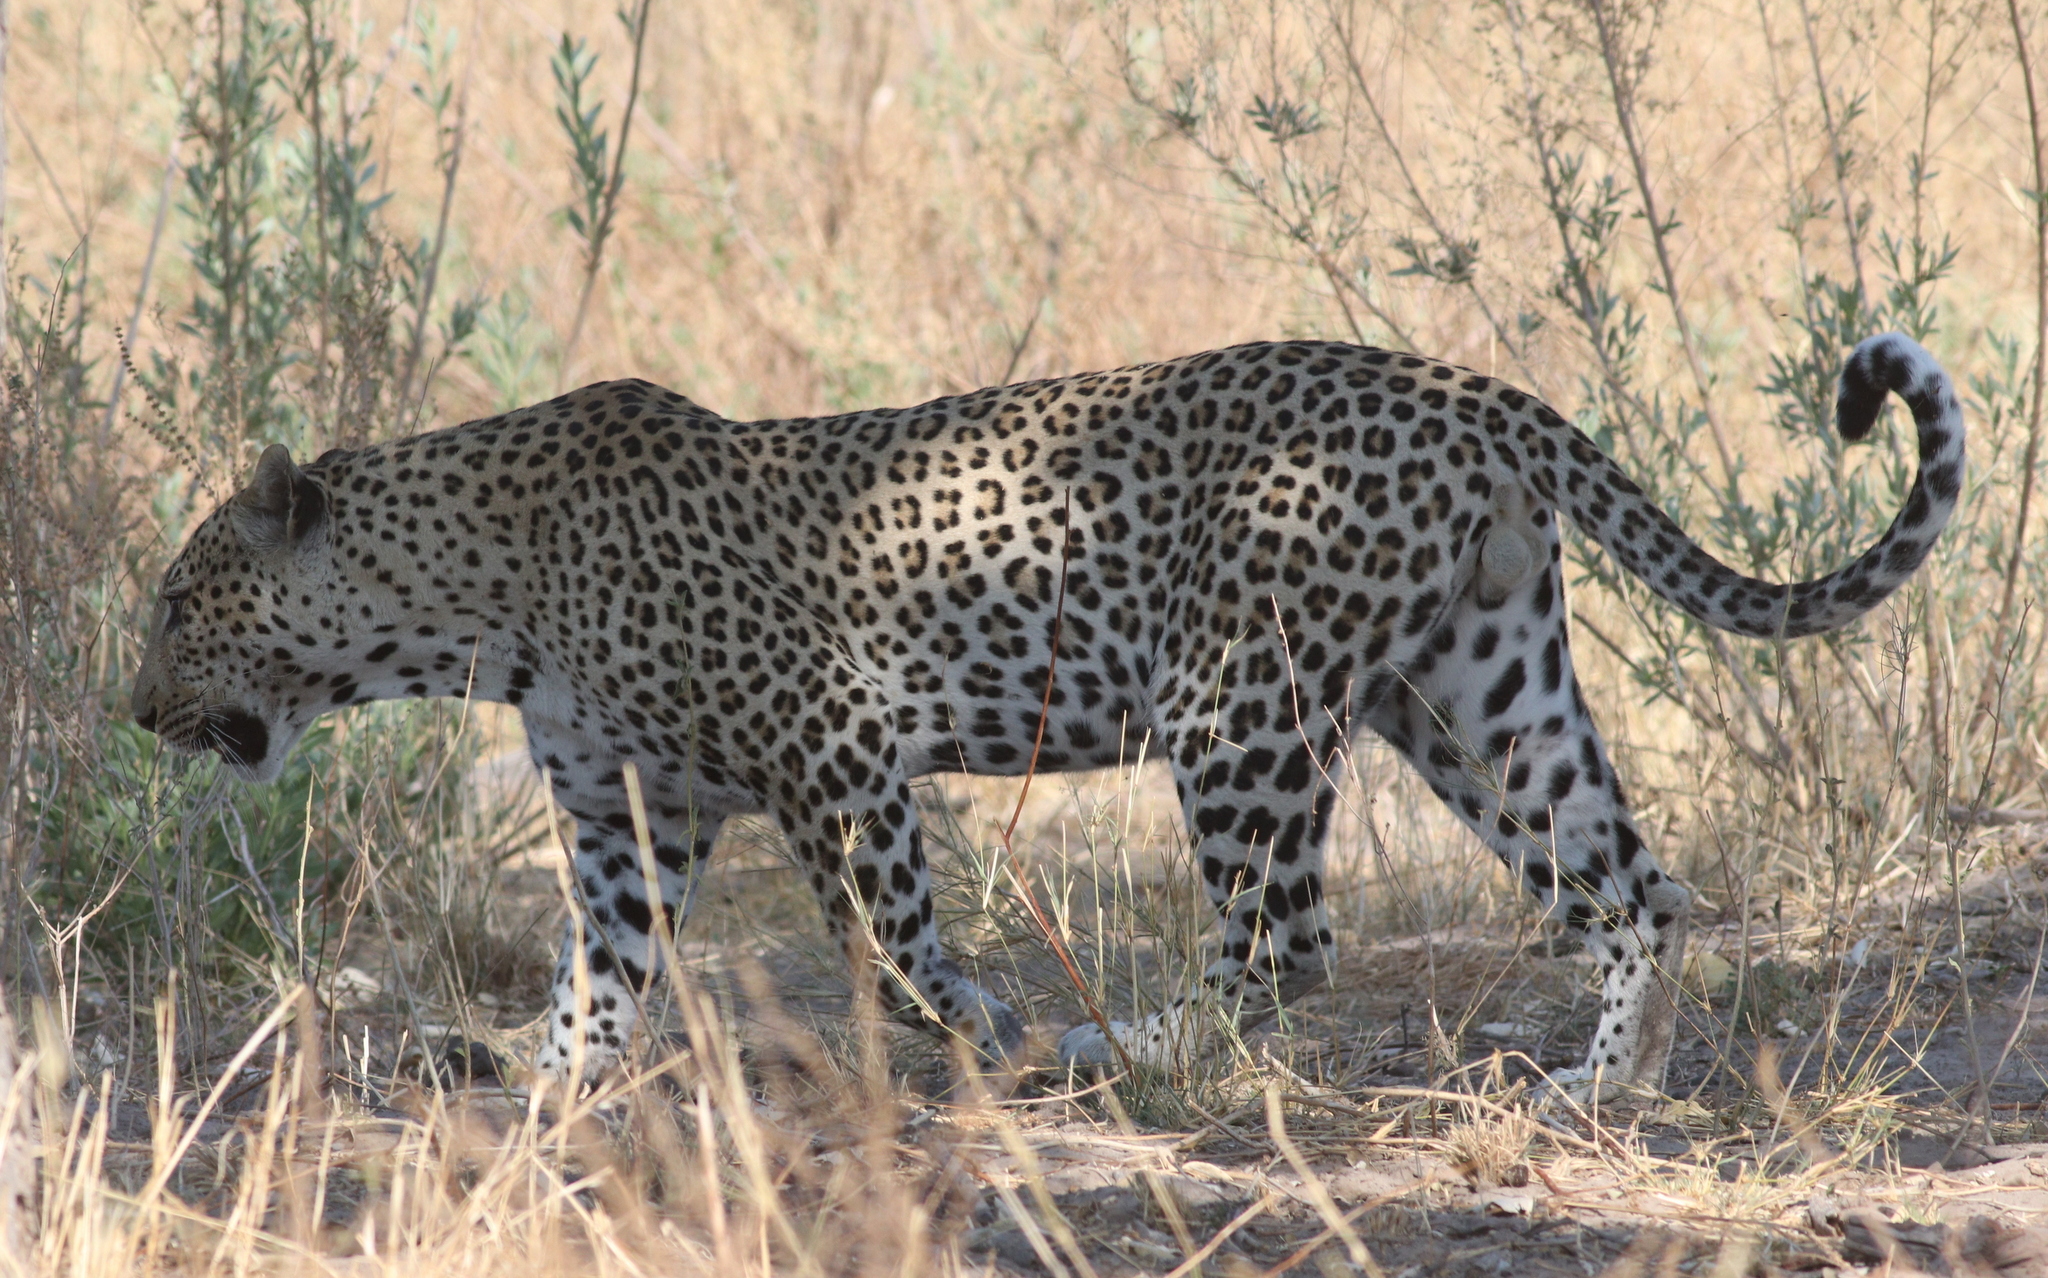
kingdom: Animalia
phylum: Chordata
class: Mammalia
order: Carnivora
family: Felidae
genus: Panthera
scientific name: Panthera pardus
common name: Leopard
